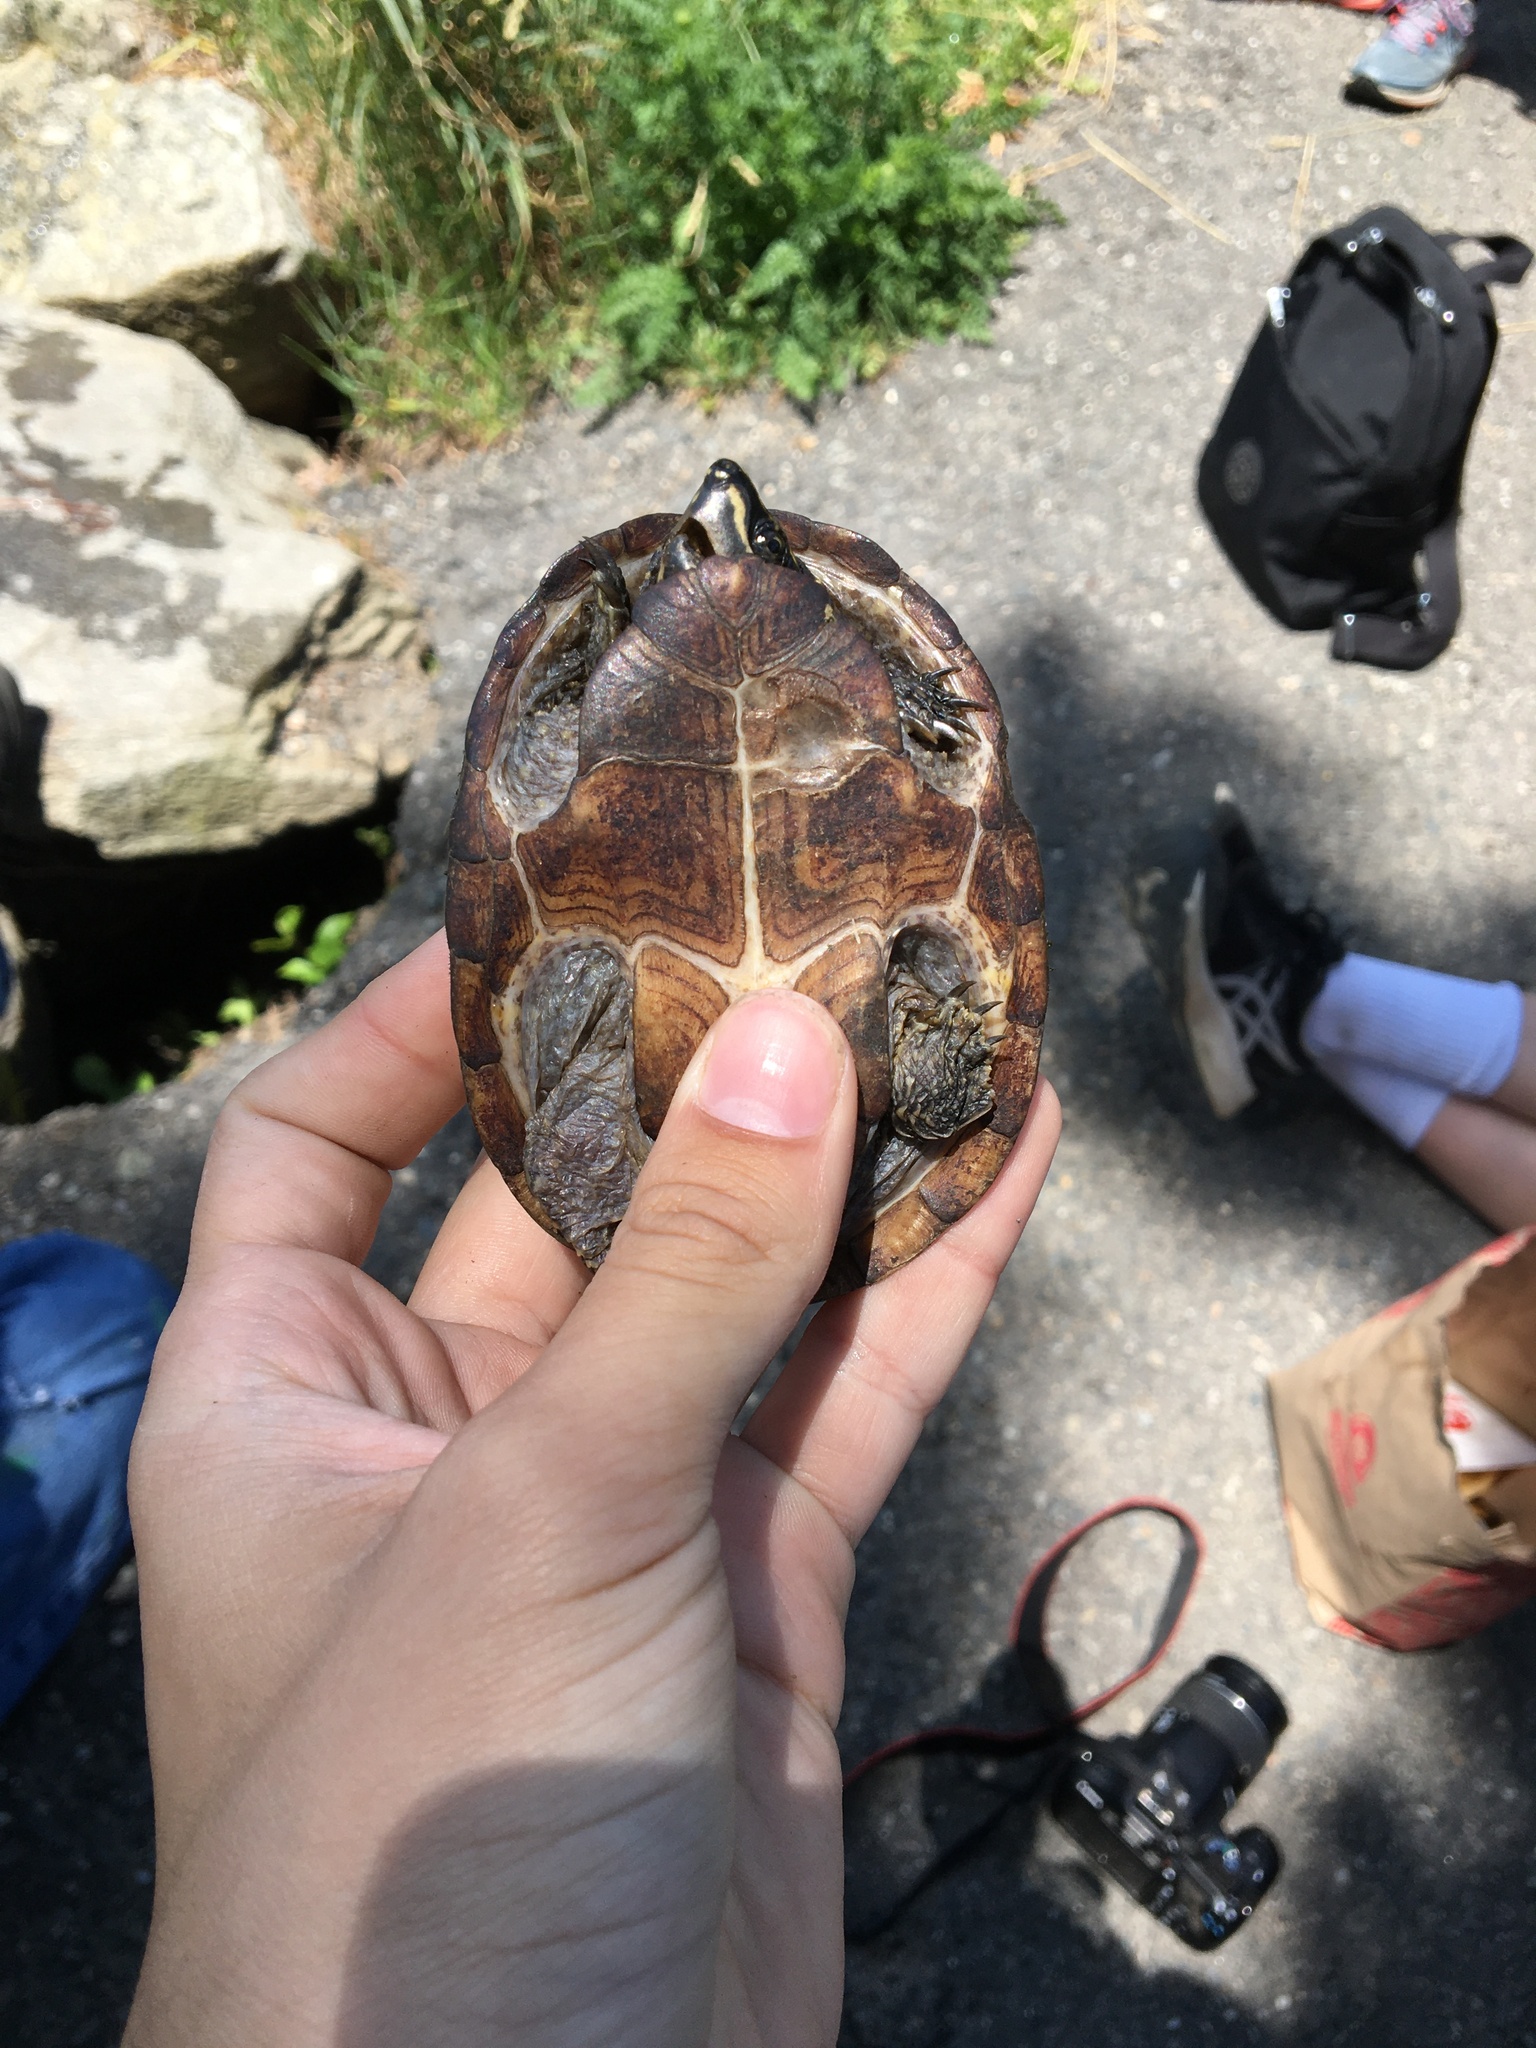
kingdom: Animalia
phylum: Chordata
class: Testudines
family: Kinosternidae
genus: Sternotherus
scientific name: Sternotherus odoratus
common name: Common musk turtle
